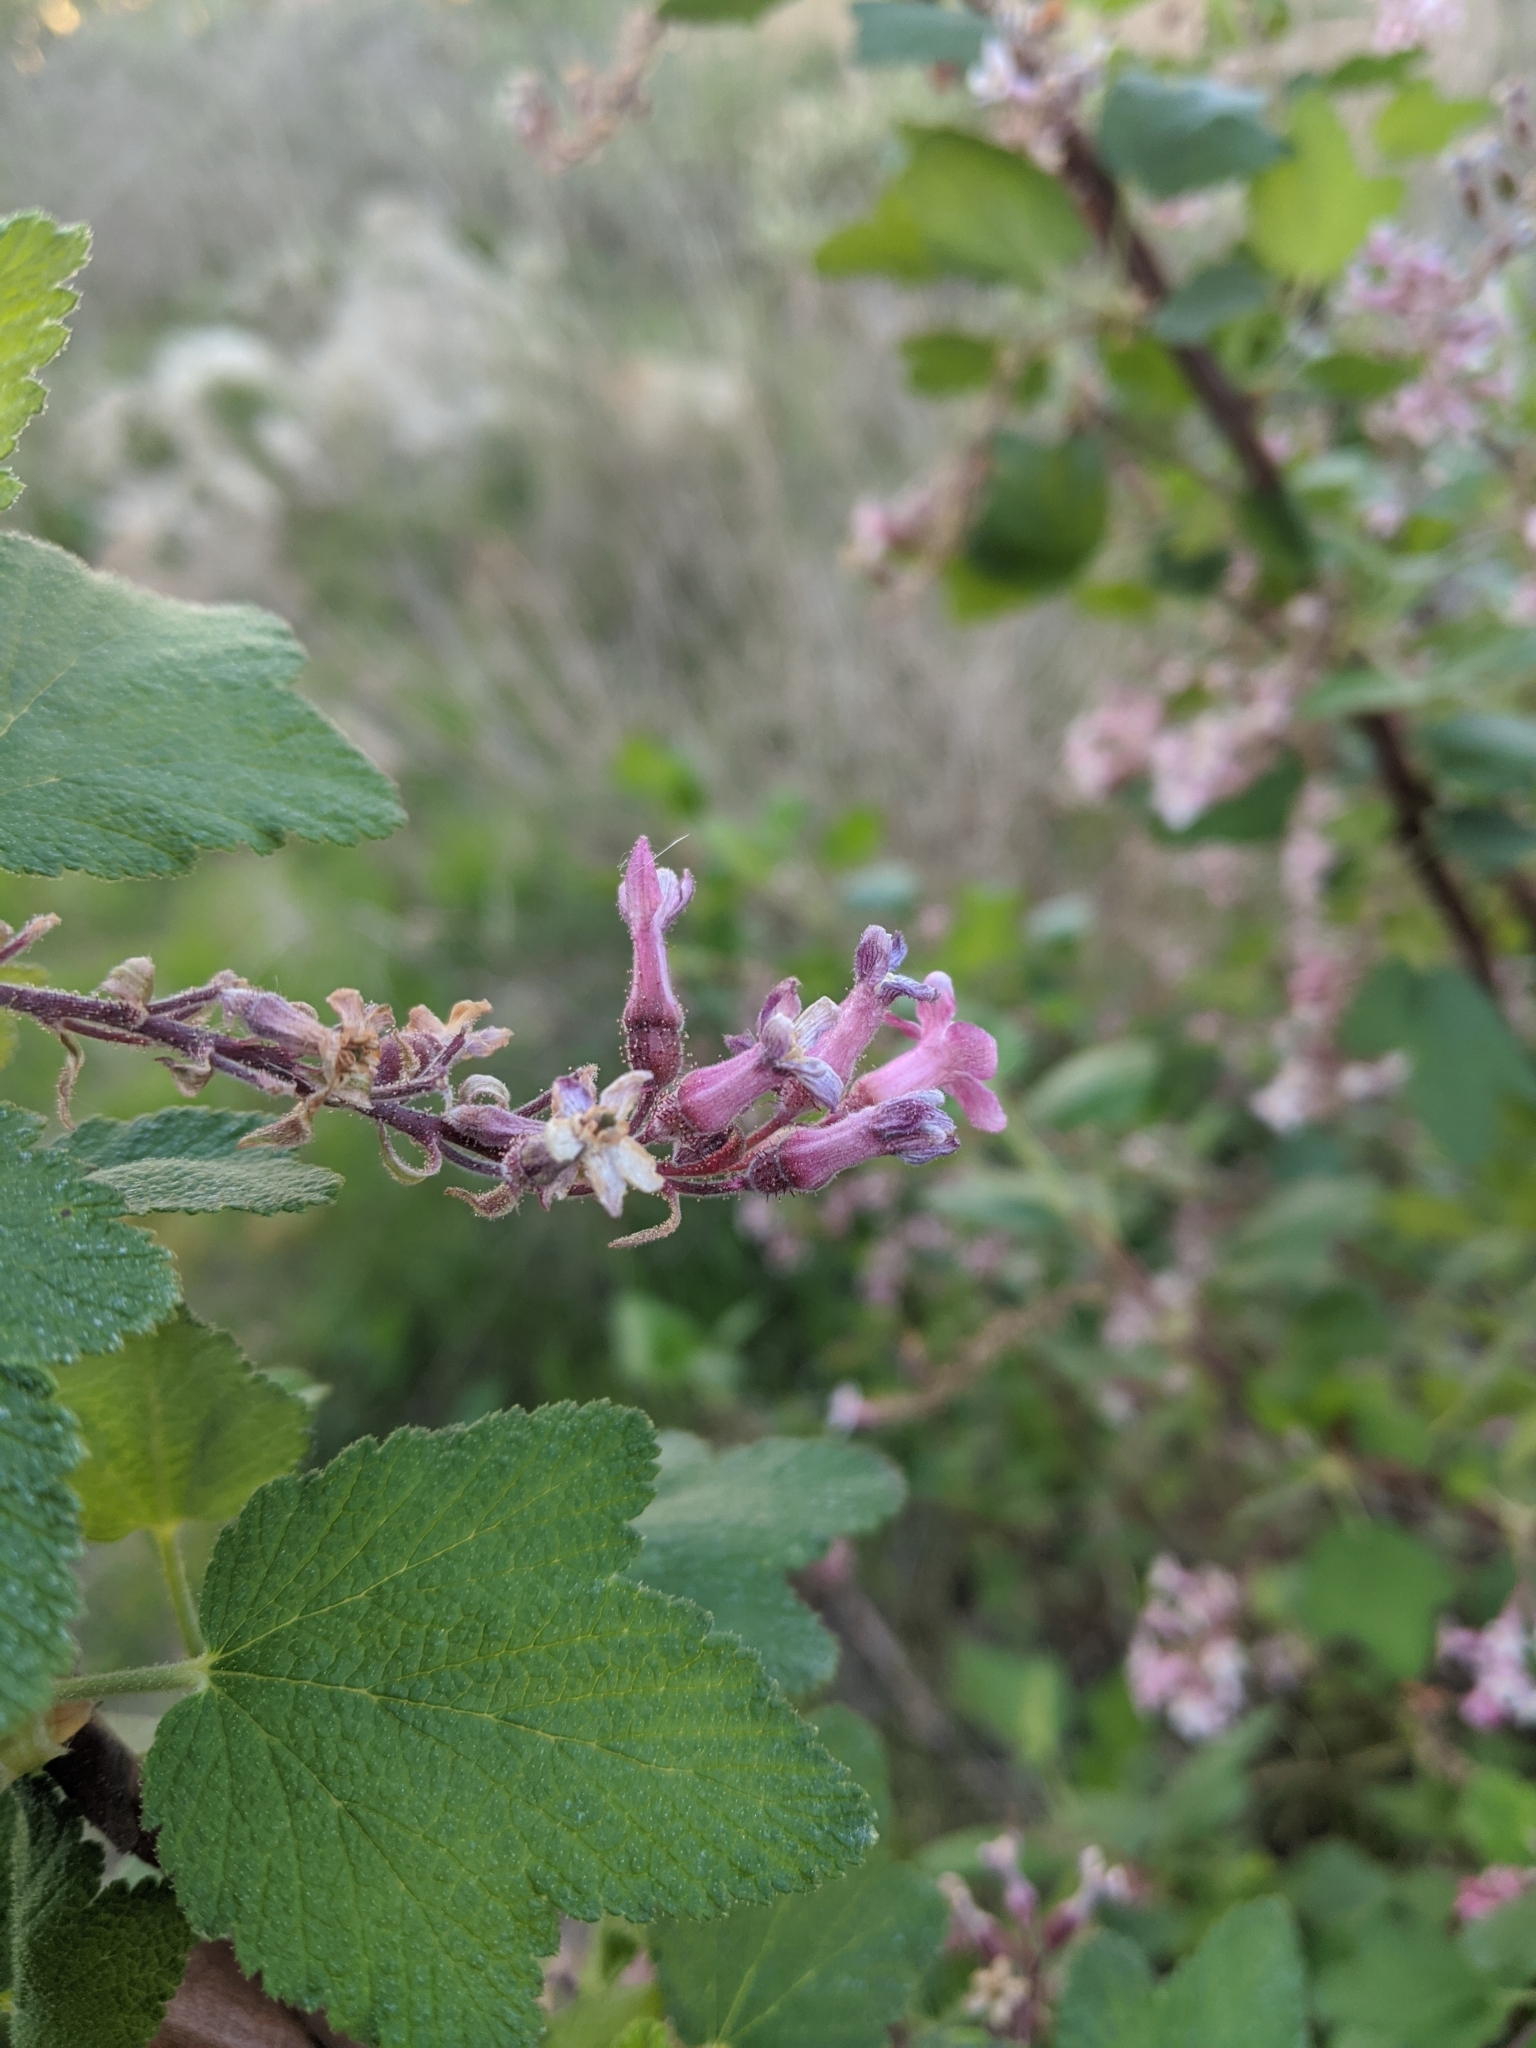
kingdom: Plantae
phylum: Tracheophyta
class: Magnoliopsida
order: Saxifragales
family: Grossulariaceae
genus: Ribes
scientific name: Ribes malvaceum
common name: Chaparral currant
